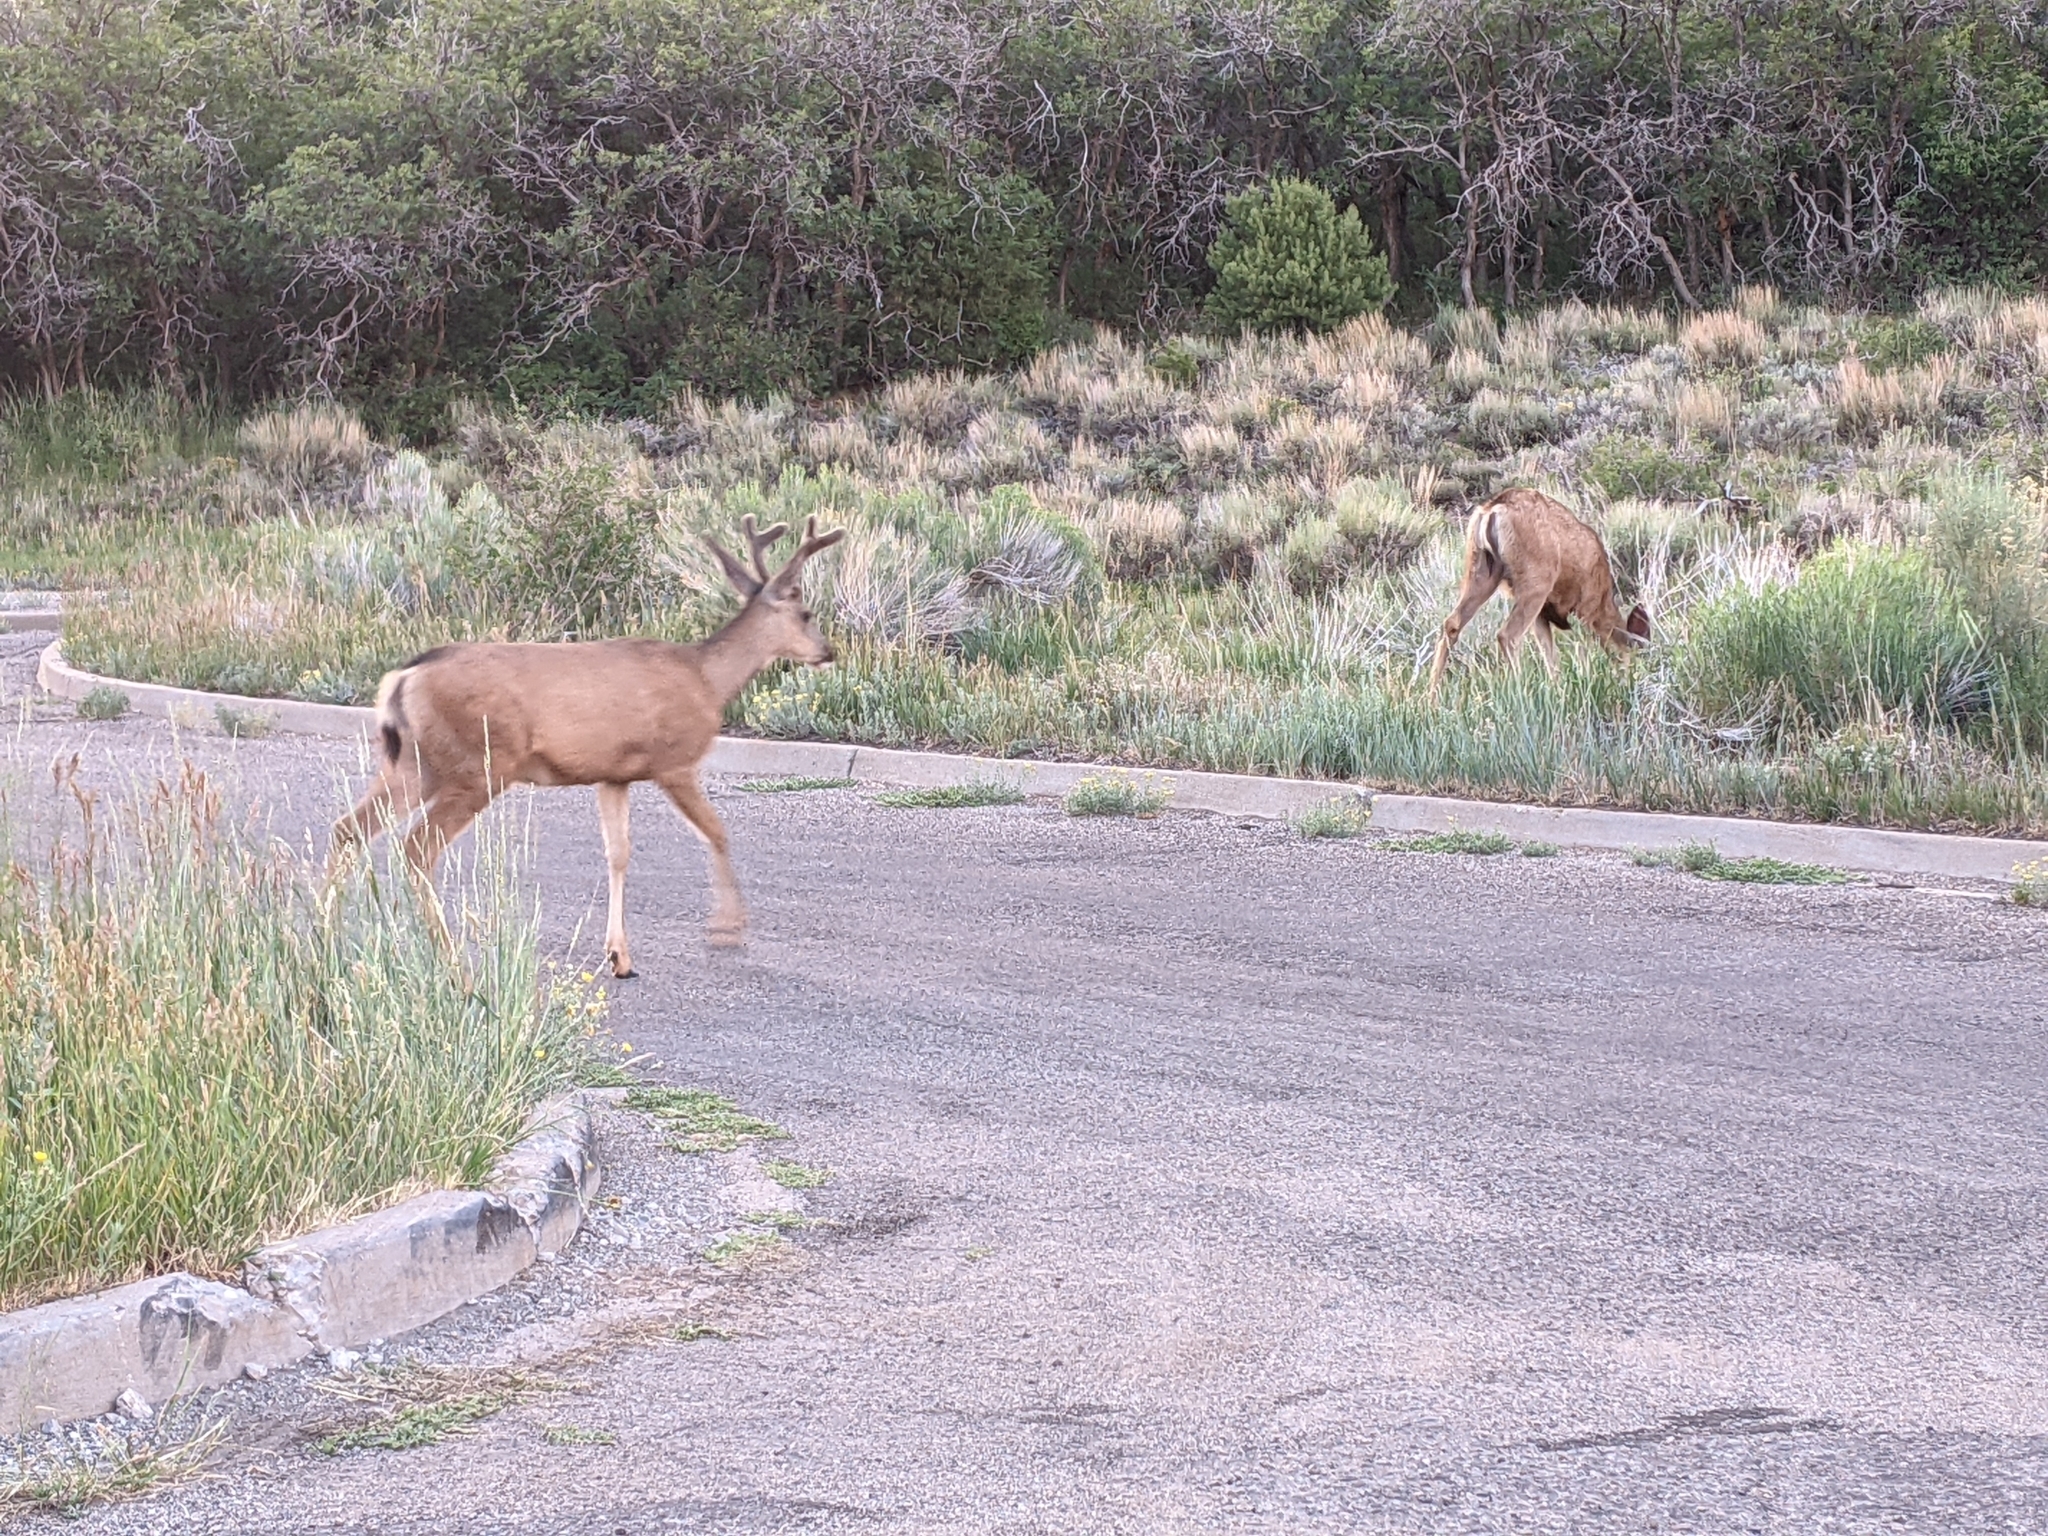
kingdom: Animalia
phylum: Chordata
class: Mammalia
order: Artiodactyla
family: Cervidae
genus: Odocoileus
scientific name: Odocoileus hemionus
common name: Mule deer
